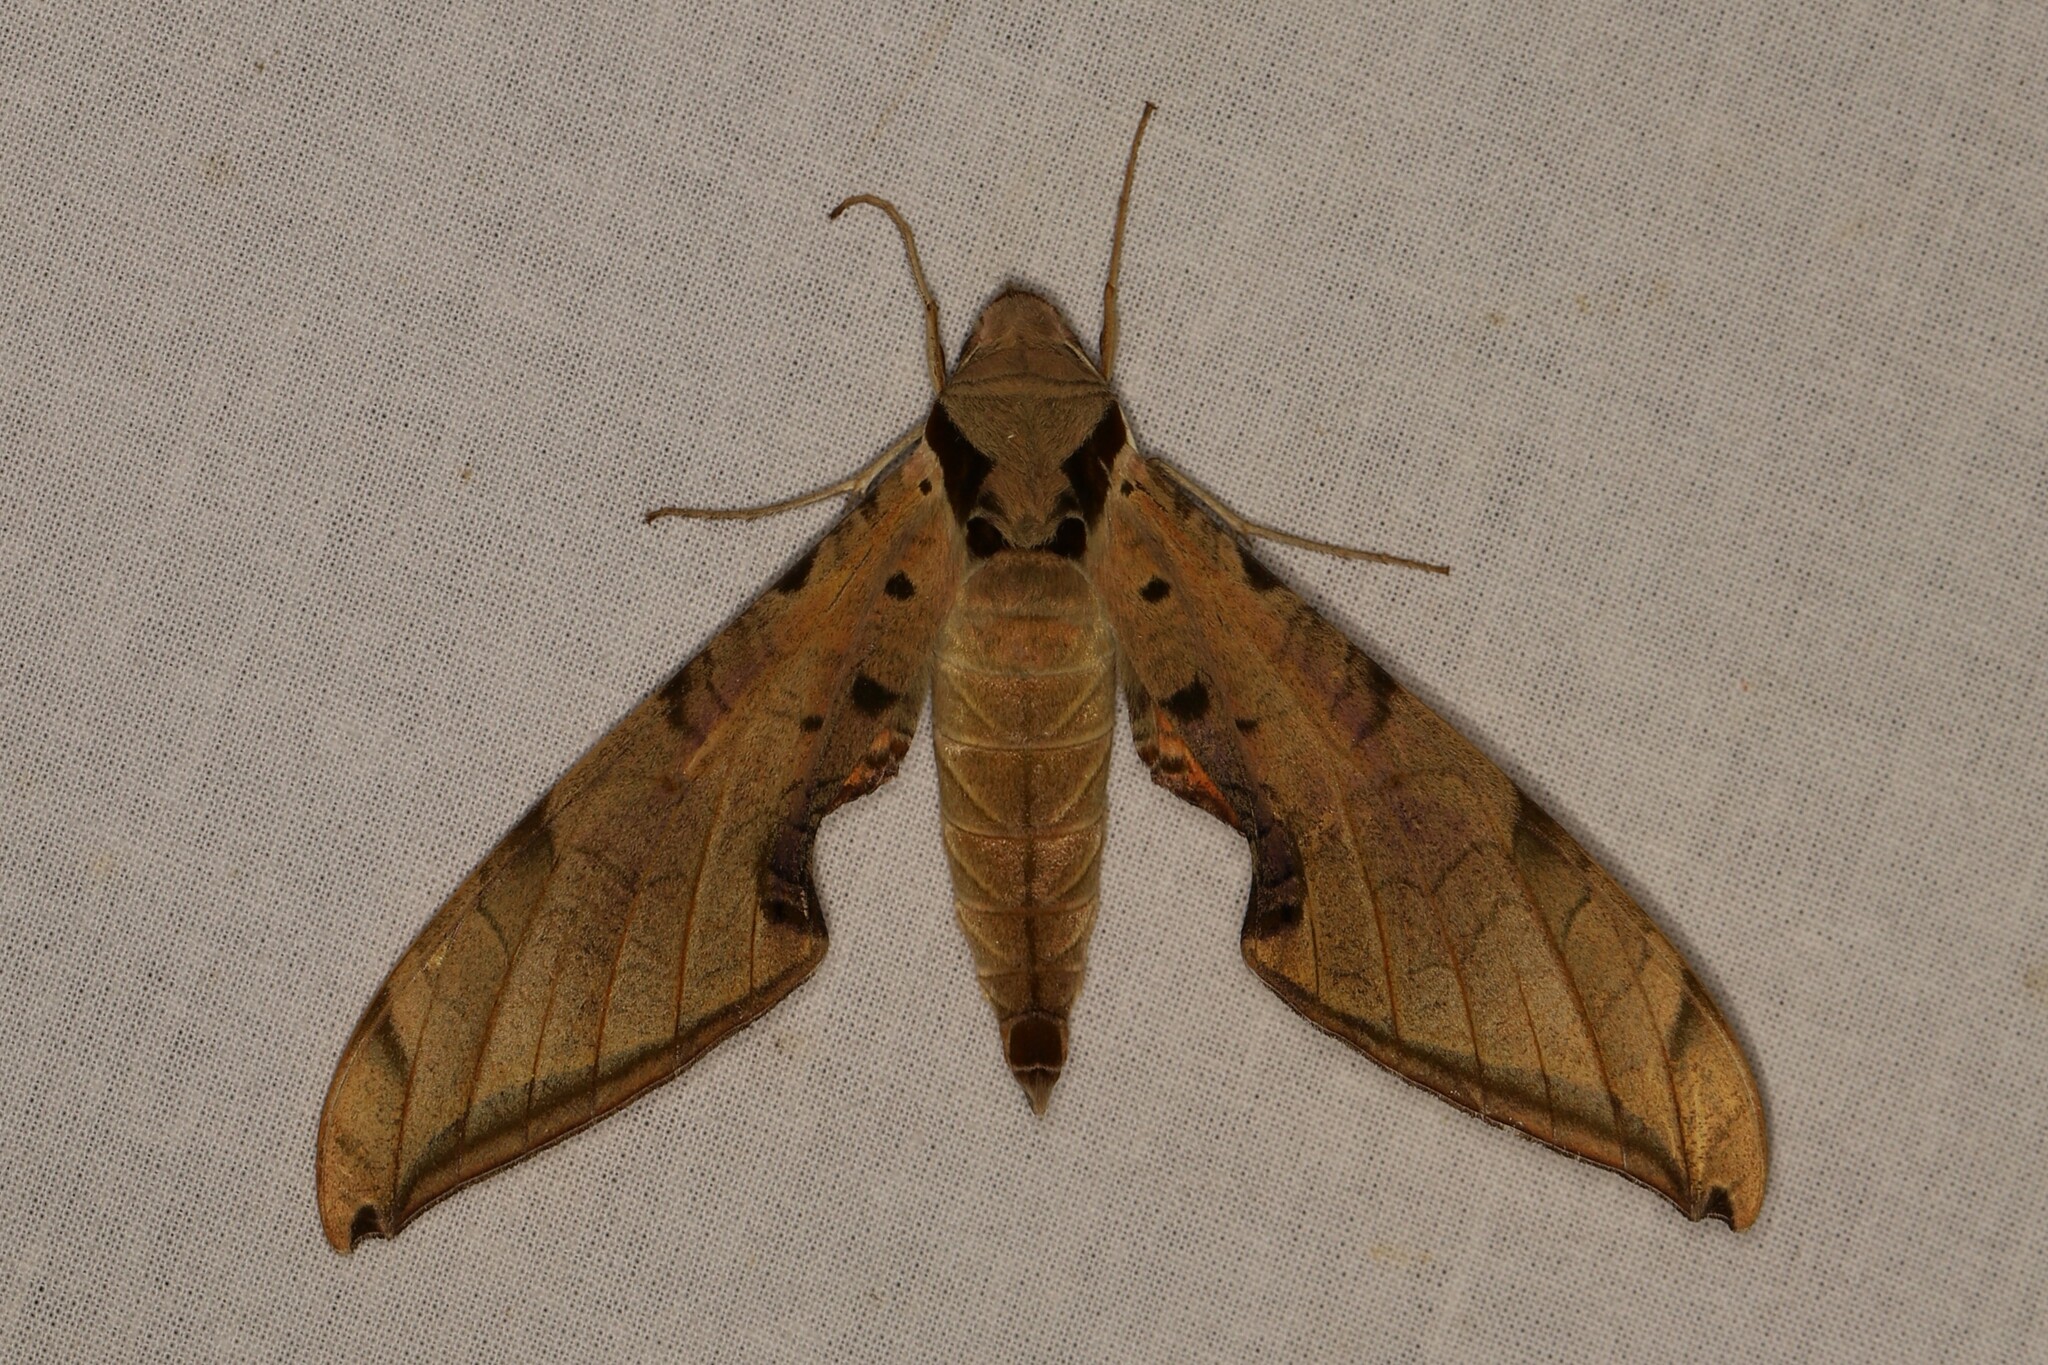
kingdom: Animalia
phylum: Arthropoda
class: Insecta
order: Lepidoptera
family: Sphingidae
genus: Protambulyx
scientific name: Protambulyx strigilis
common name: Streaked sphinx
